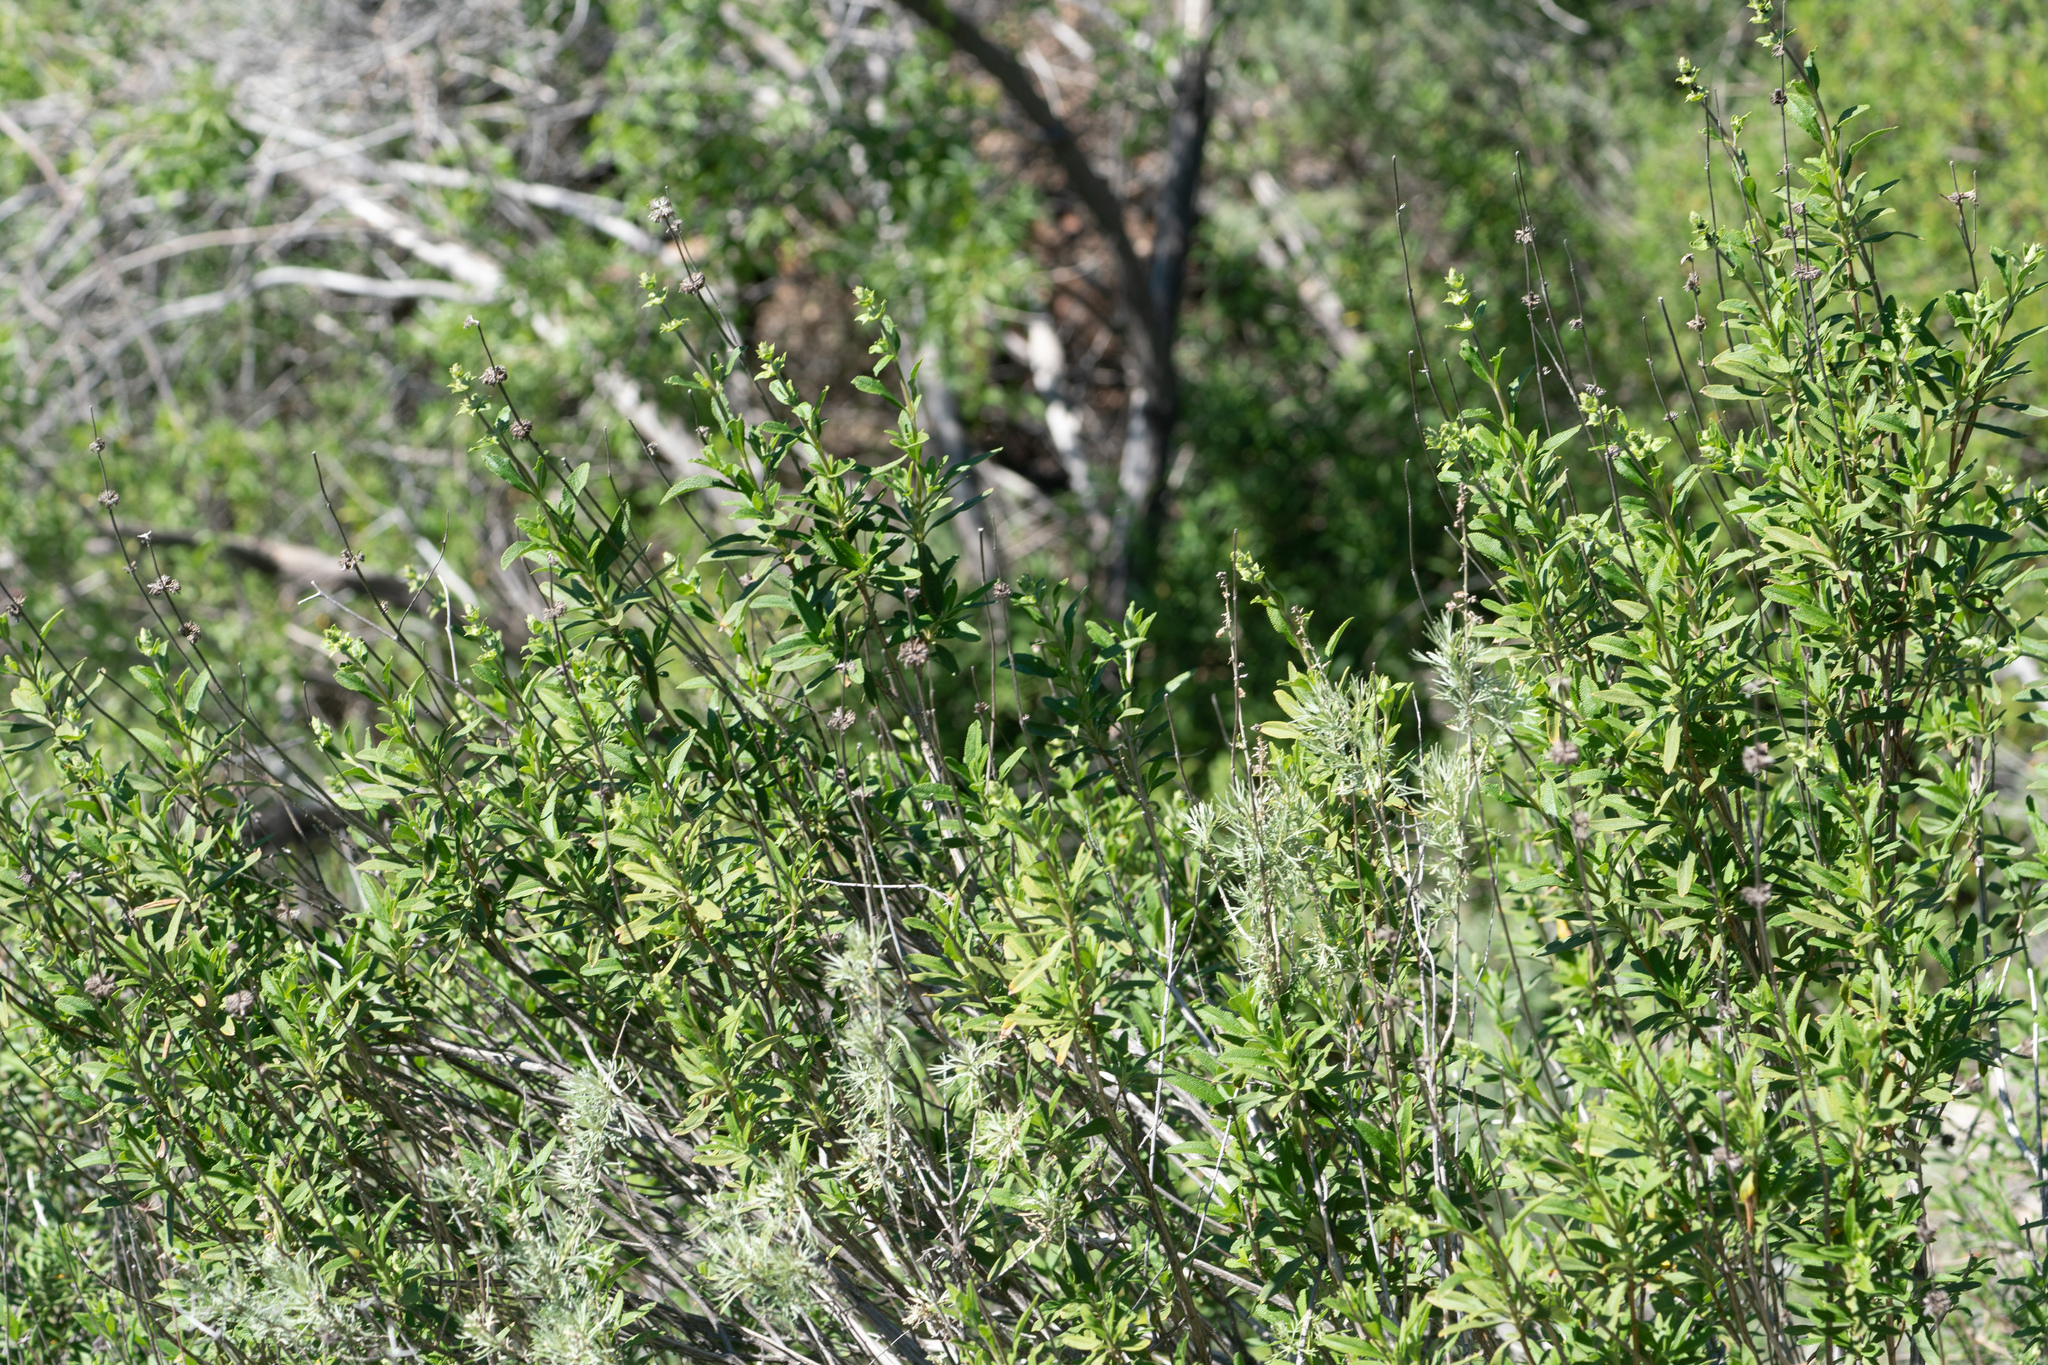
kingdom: Plantae
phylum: Tracheophyta
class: Magnoliopsida
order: Lamiales
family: Lamiaceae
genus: Salvia
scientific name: Salvia mellifera
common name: Black sage
